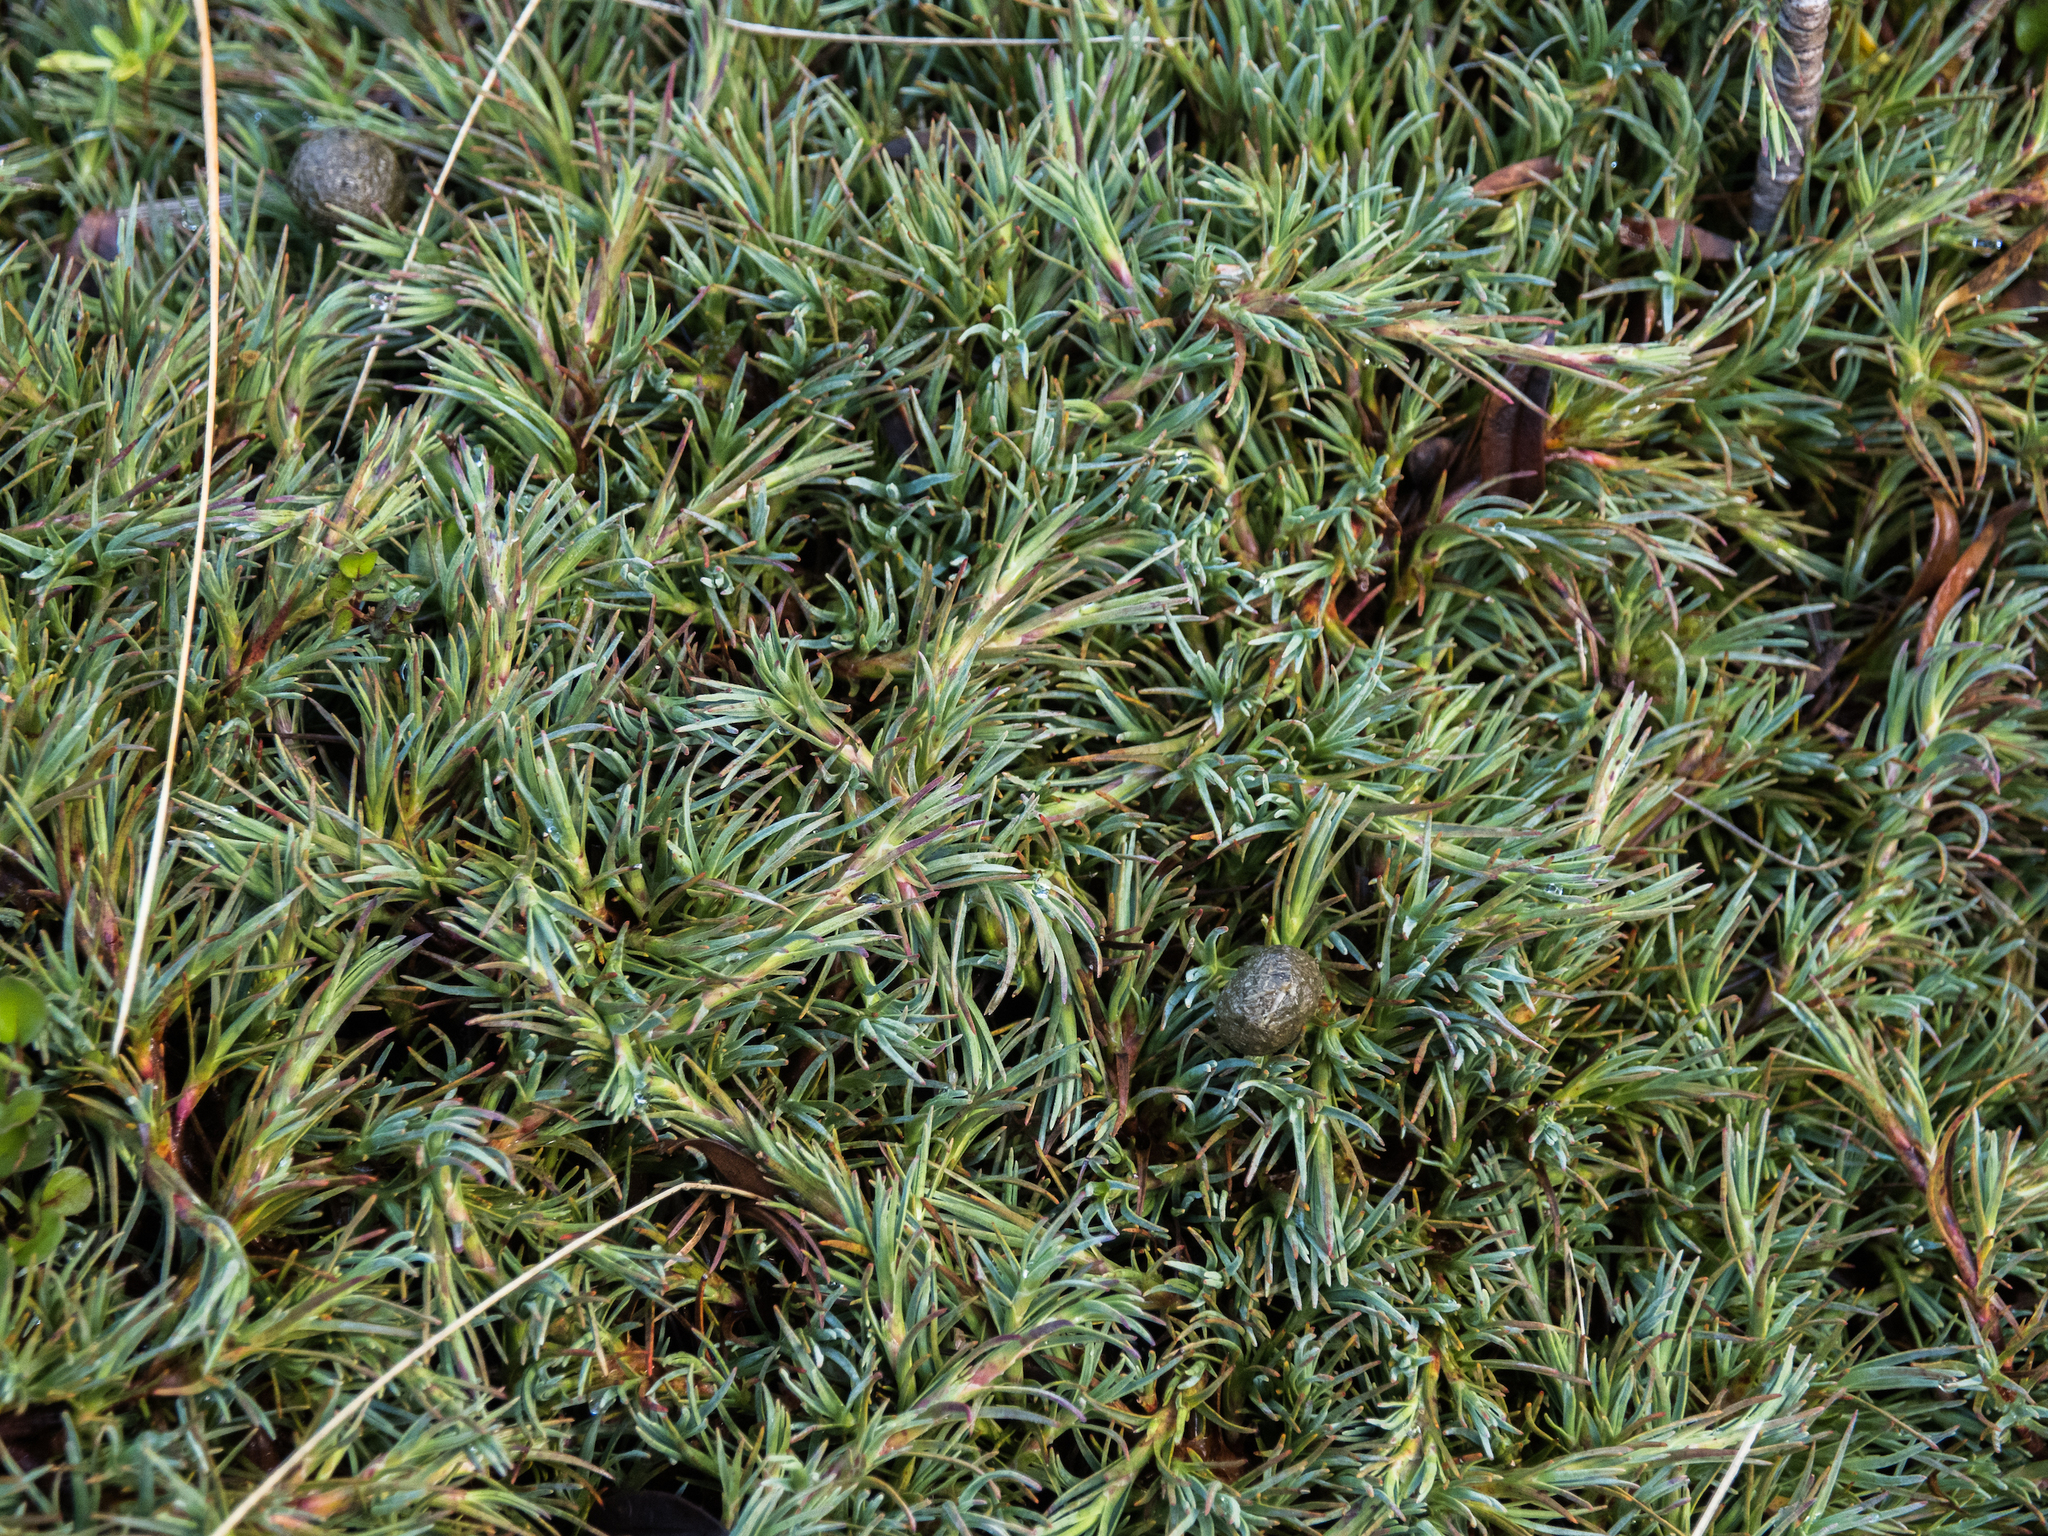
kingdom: Plantae
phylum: Tracheophyta
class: Magnoliopsida
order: Ericales
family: Ericaceae
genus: Dracophyllum
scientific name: Dracophyllum kirkii
